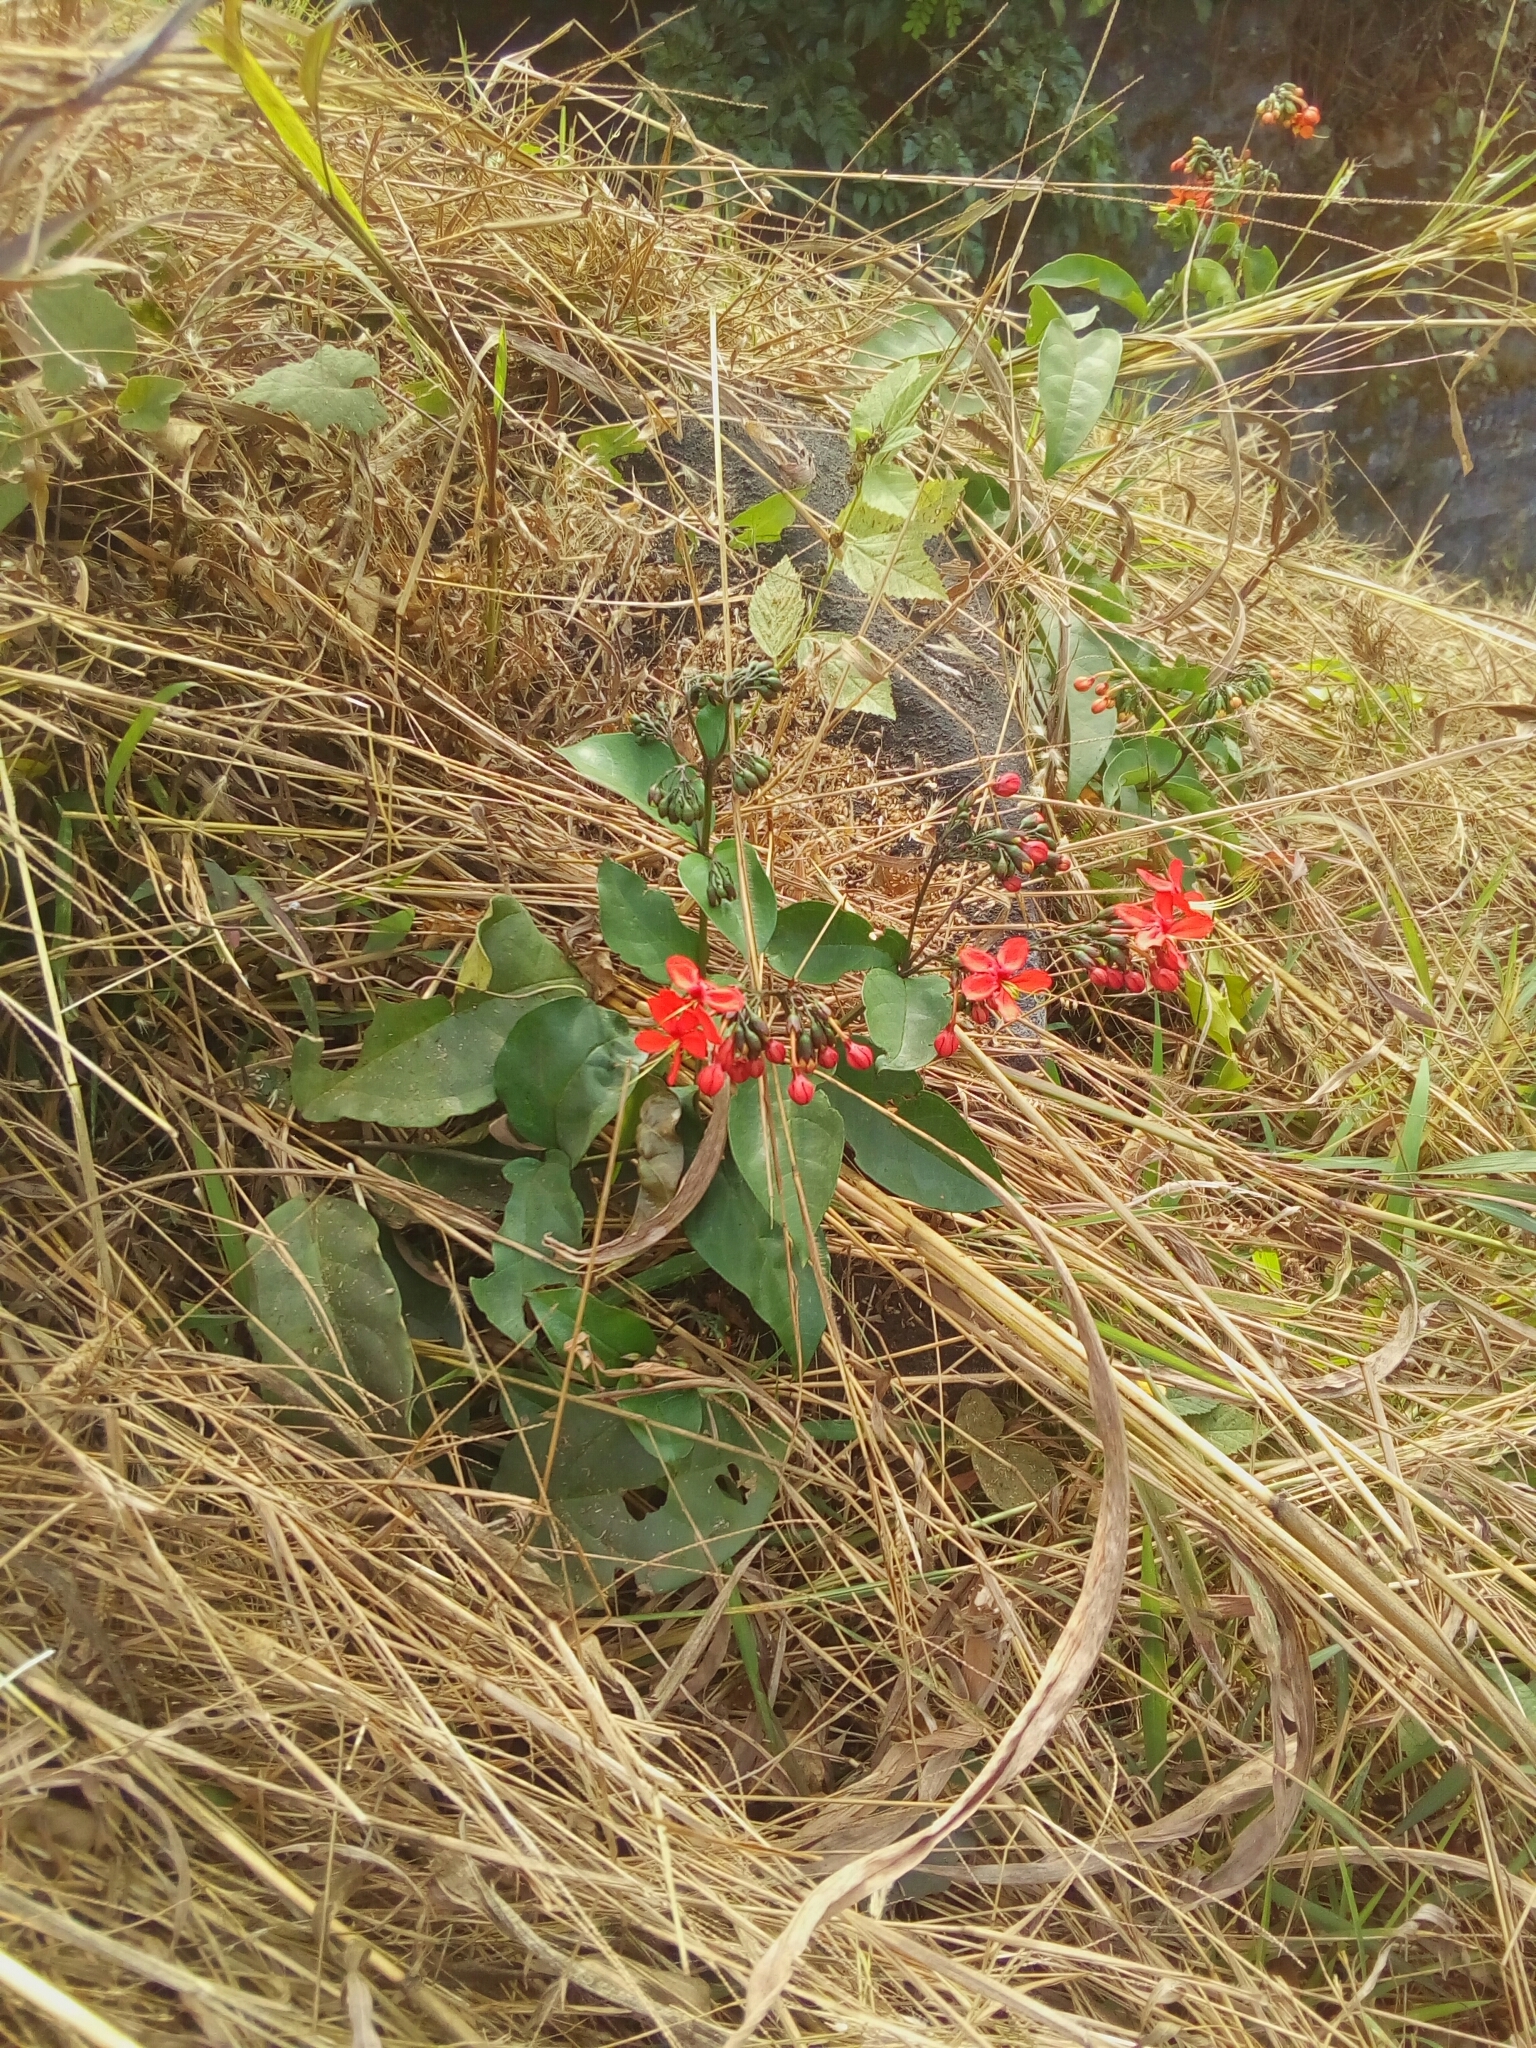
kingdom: Plantae
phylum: Tracheophyta
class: Magnoliopsida
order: Lamiales
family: Lamiaceae
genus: Clerodendrum
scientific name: Clerodendrum splendens
